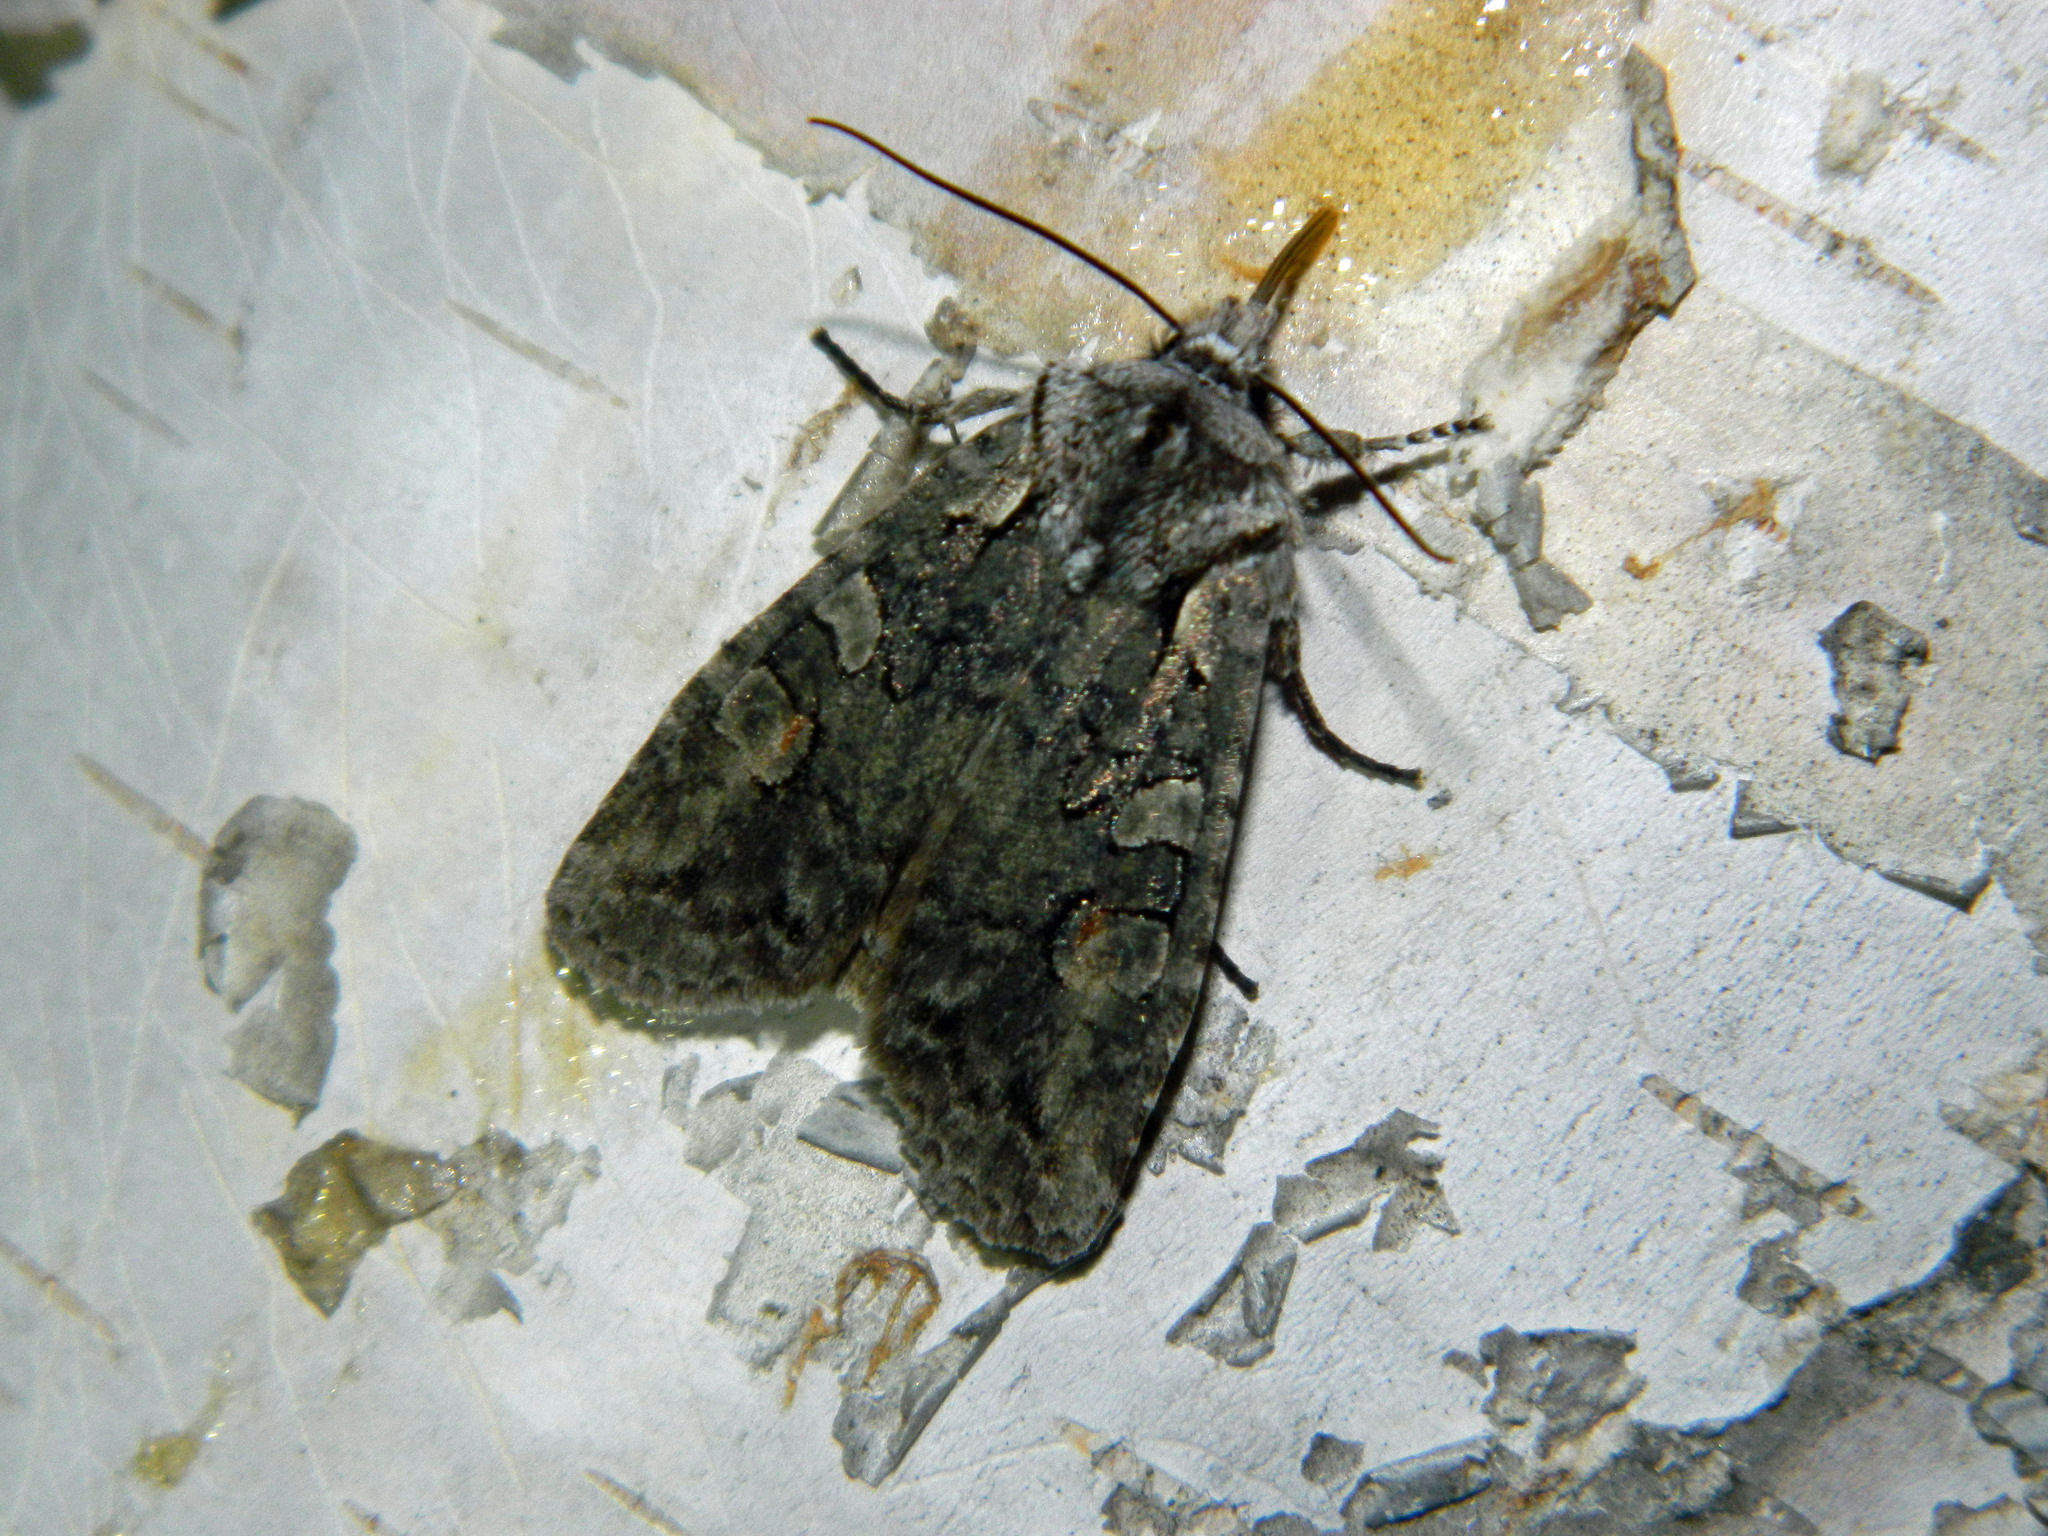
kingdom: Animalia
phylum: Arthropoda
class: Insecta
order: Lepidoptera
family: Noctuidae
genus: Lithophane
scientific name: Lithophane baileyi
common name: Bailey's pinion moth
